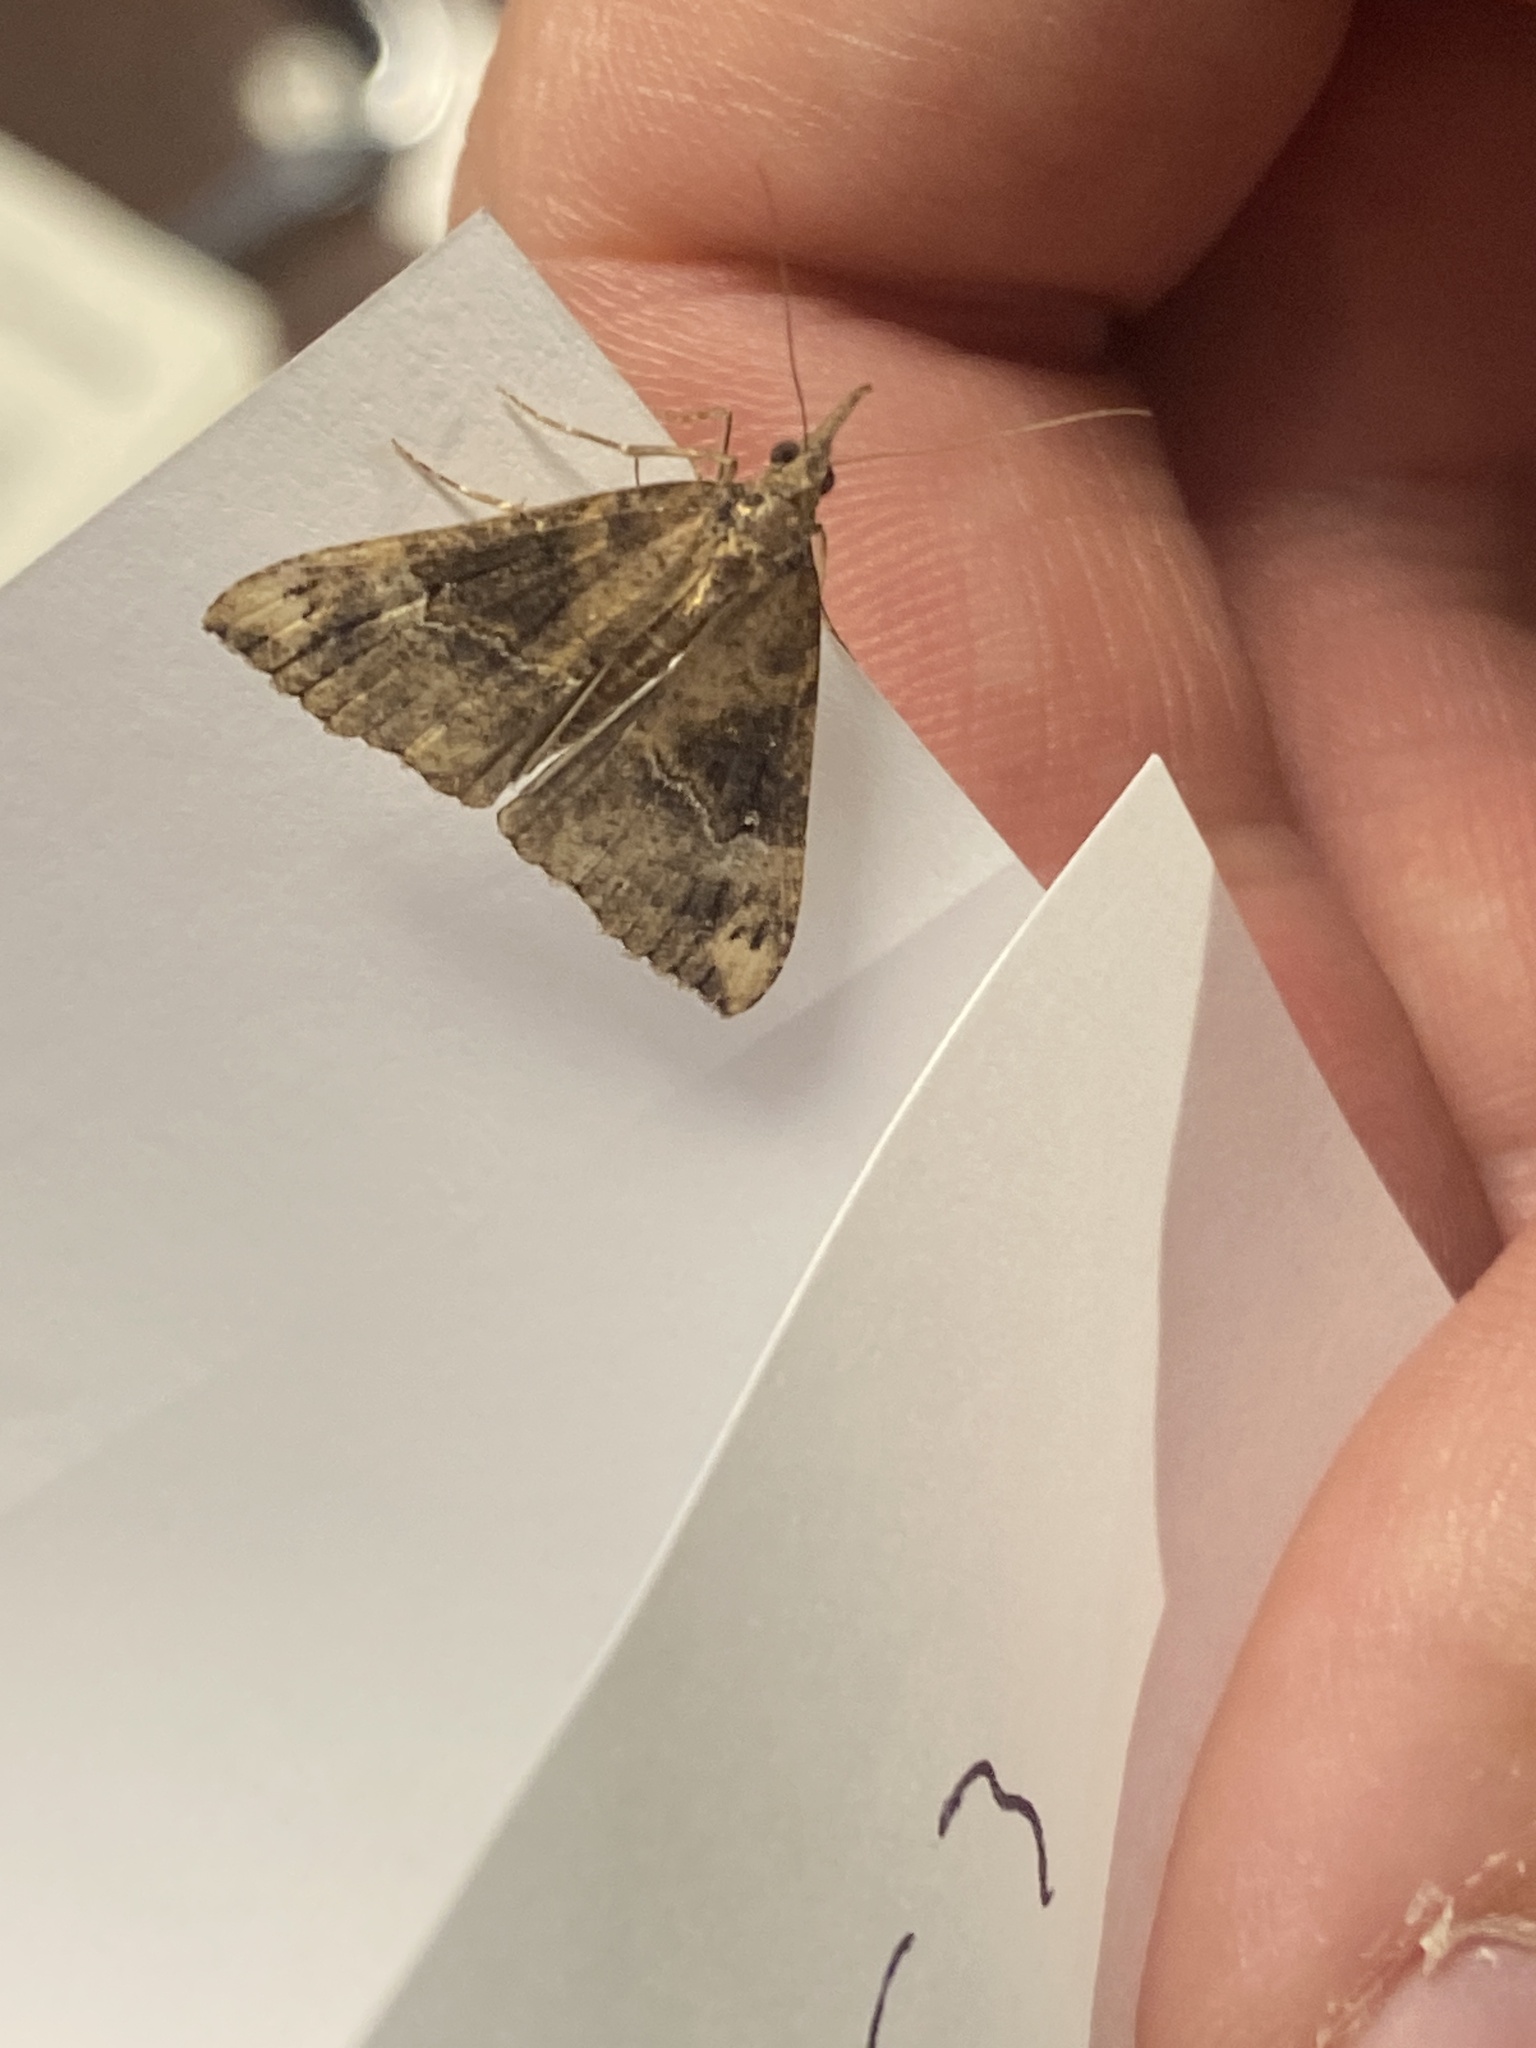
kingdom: Animalia
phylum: Arthropoda
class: Insecta
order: Lepidoptera
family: Erebidae
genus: Hypena
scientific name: Hypena obsitalis
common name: Bloxworth snout
